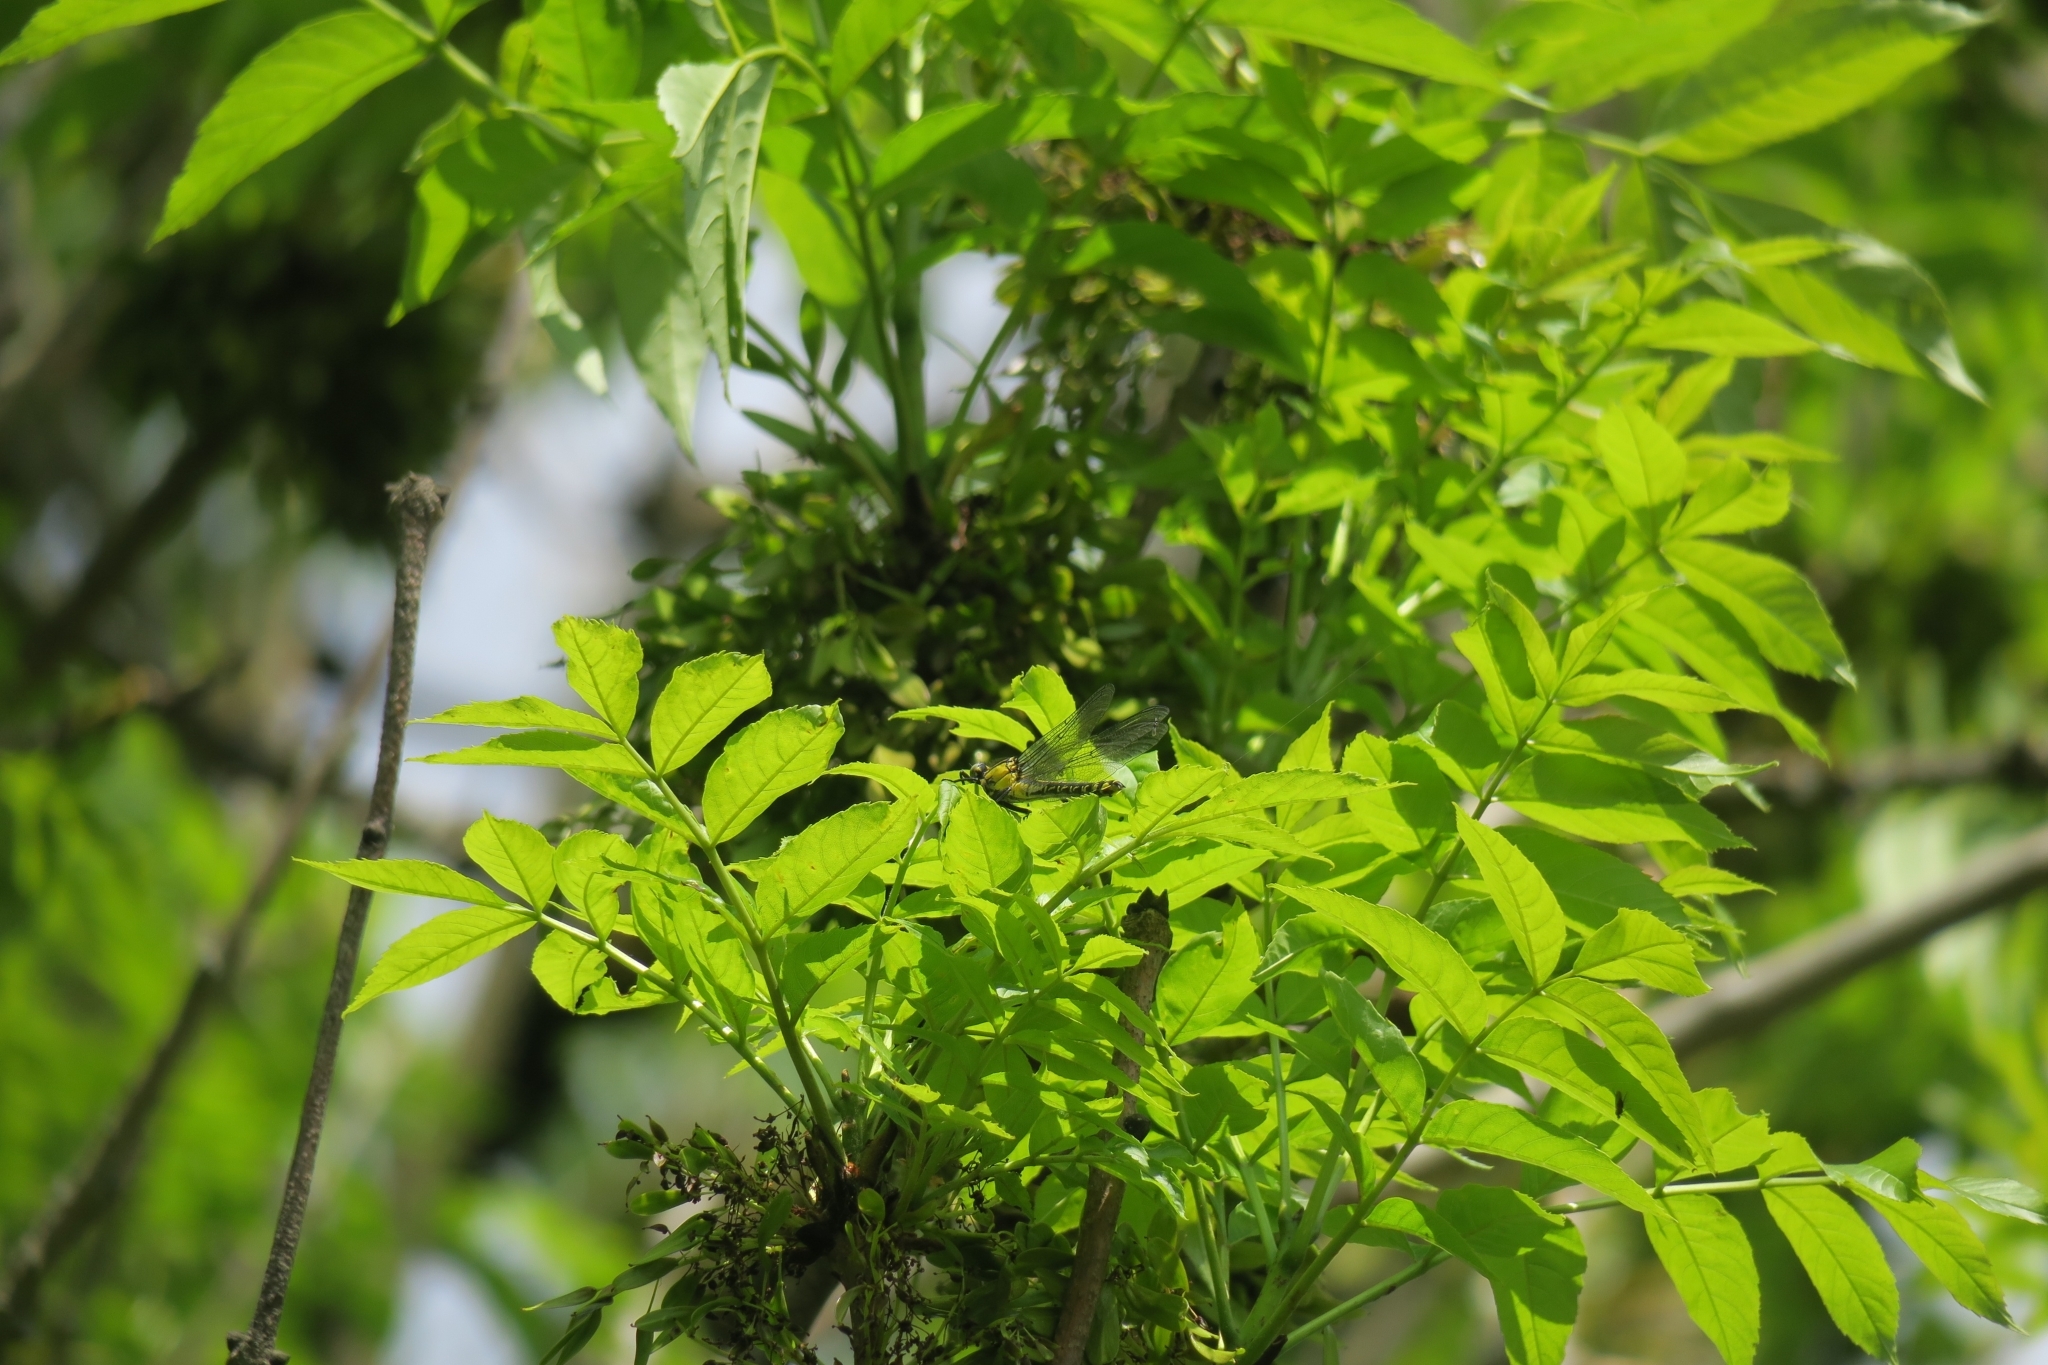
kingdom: Animalia
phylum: Arthropoda
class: Insecta
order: Odonata
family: Gomphidae
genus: Gomphus
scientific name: Gomphus vulgatissimus
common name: Club-tailed dragonfly
